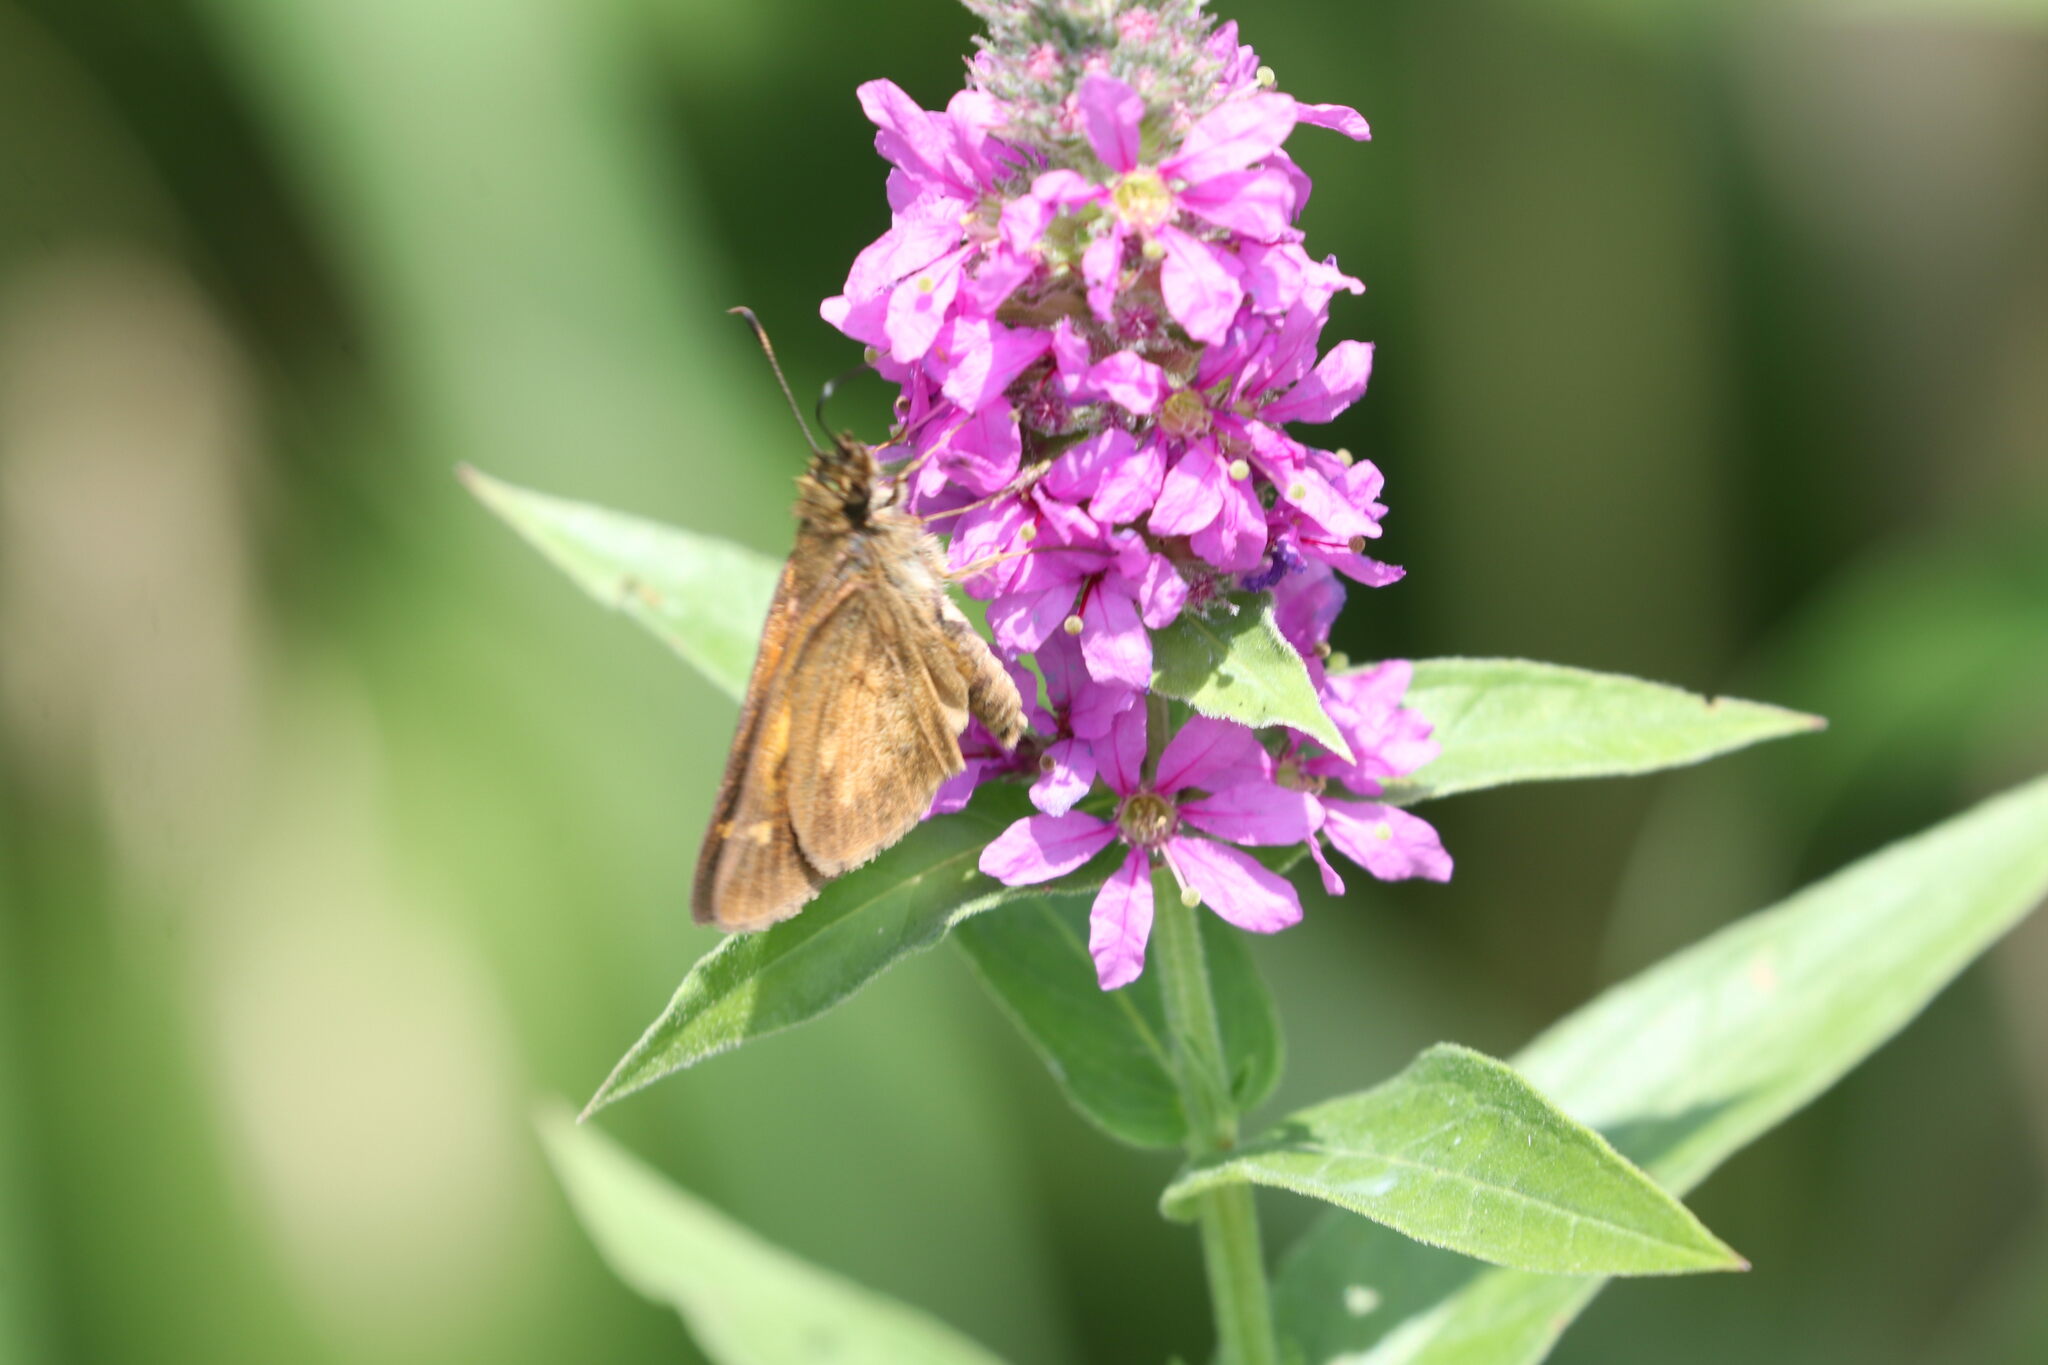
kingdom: Animalia
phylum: Arthropoda
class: Insecta
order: Lepidoptera
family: Hesperiidae
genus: Poanes
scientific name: Poanes viator
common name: Broad-winged skipper
